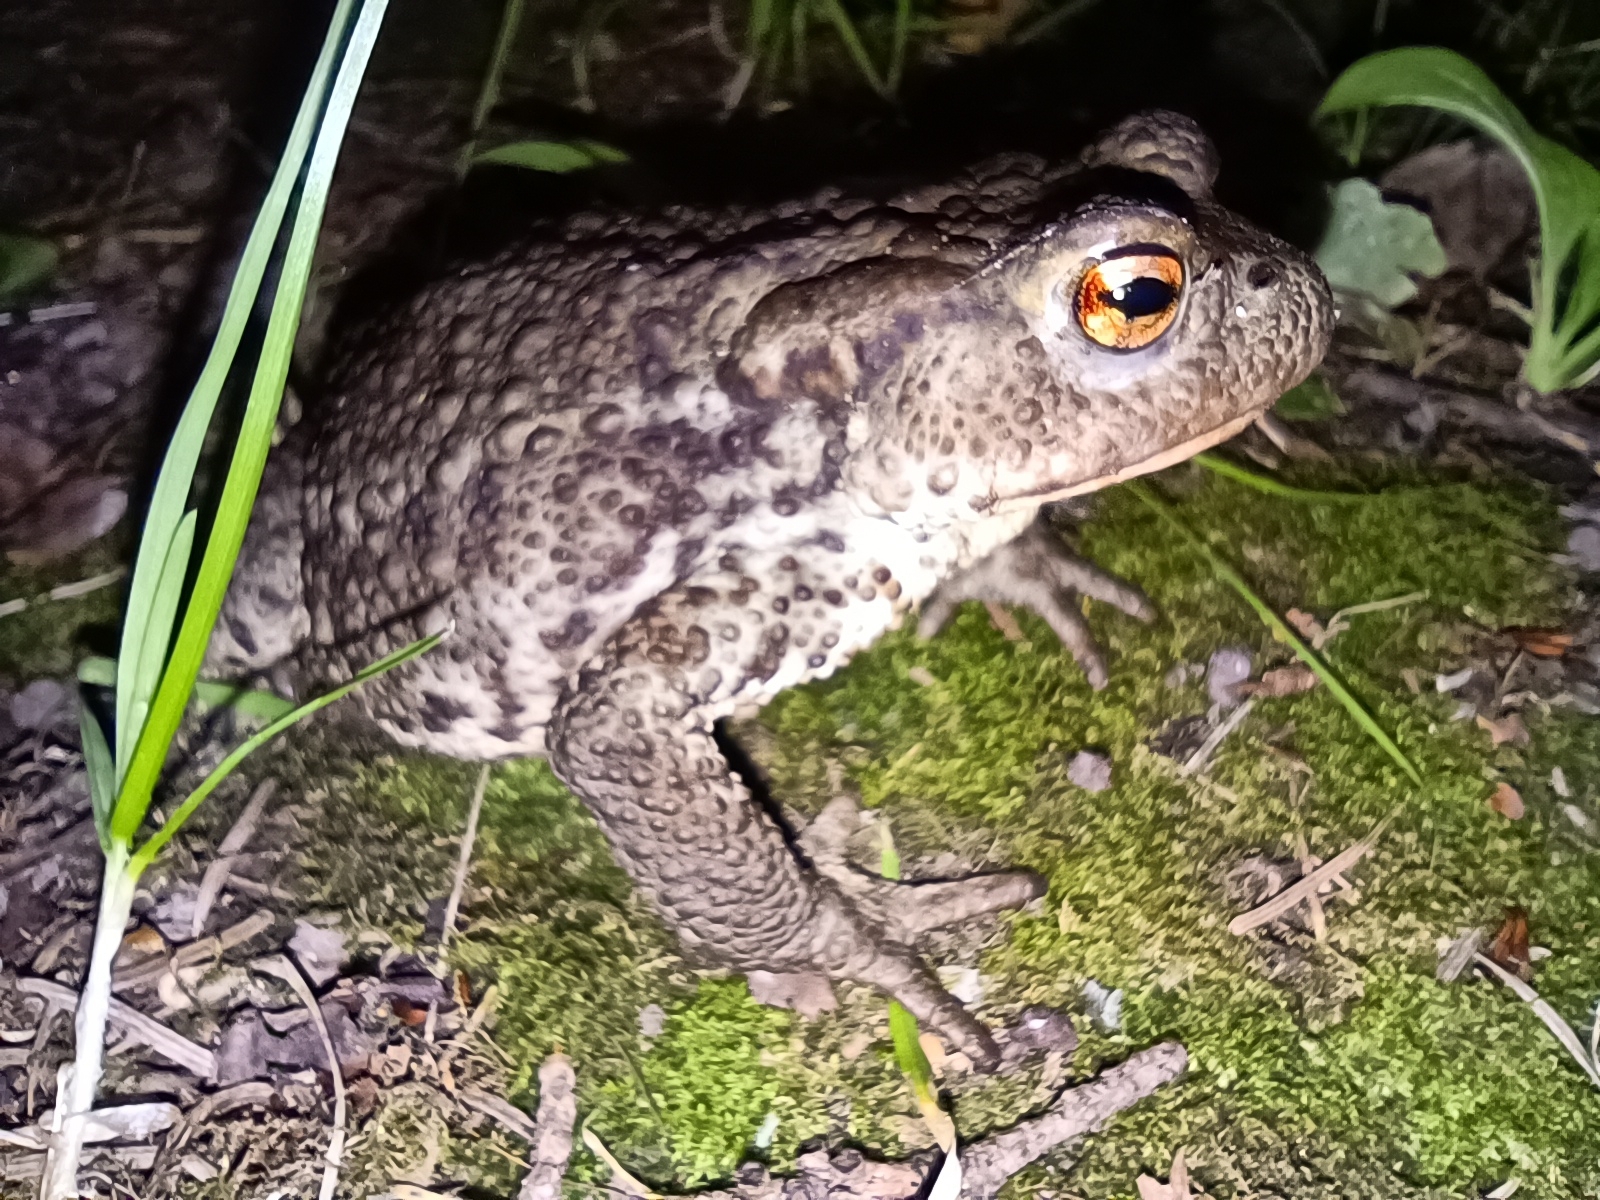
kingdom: Animalia
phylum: Chordata
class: Amphibia
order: Anura
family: Bufonidae
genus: Bufo
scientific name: Bufo bufo
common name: Common toad
